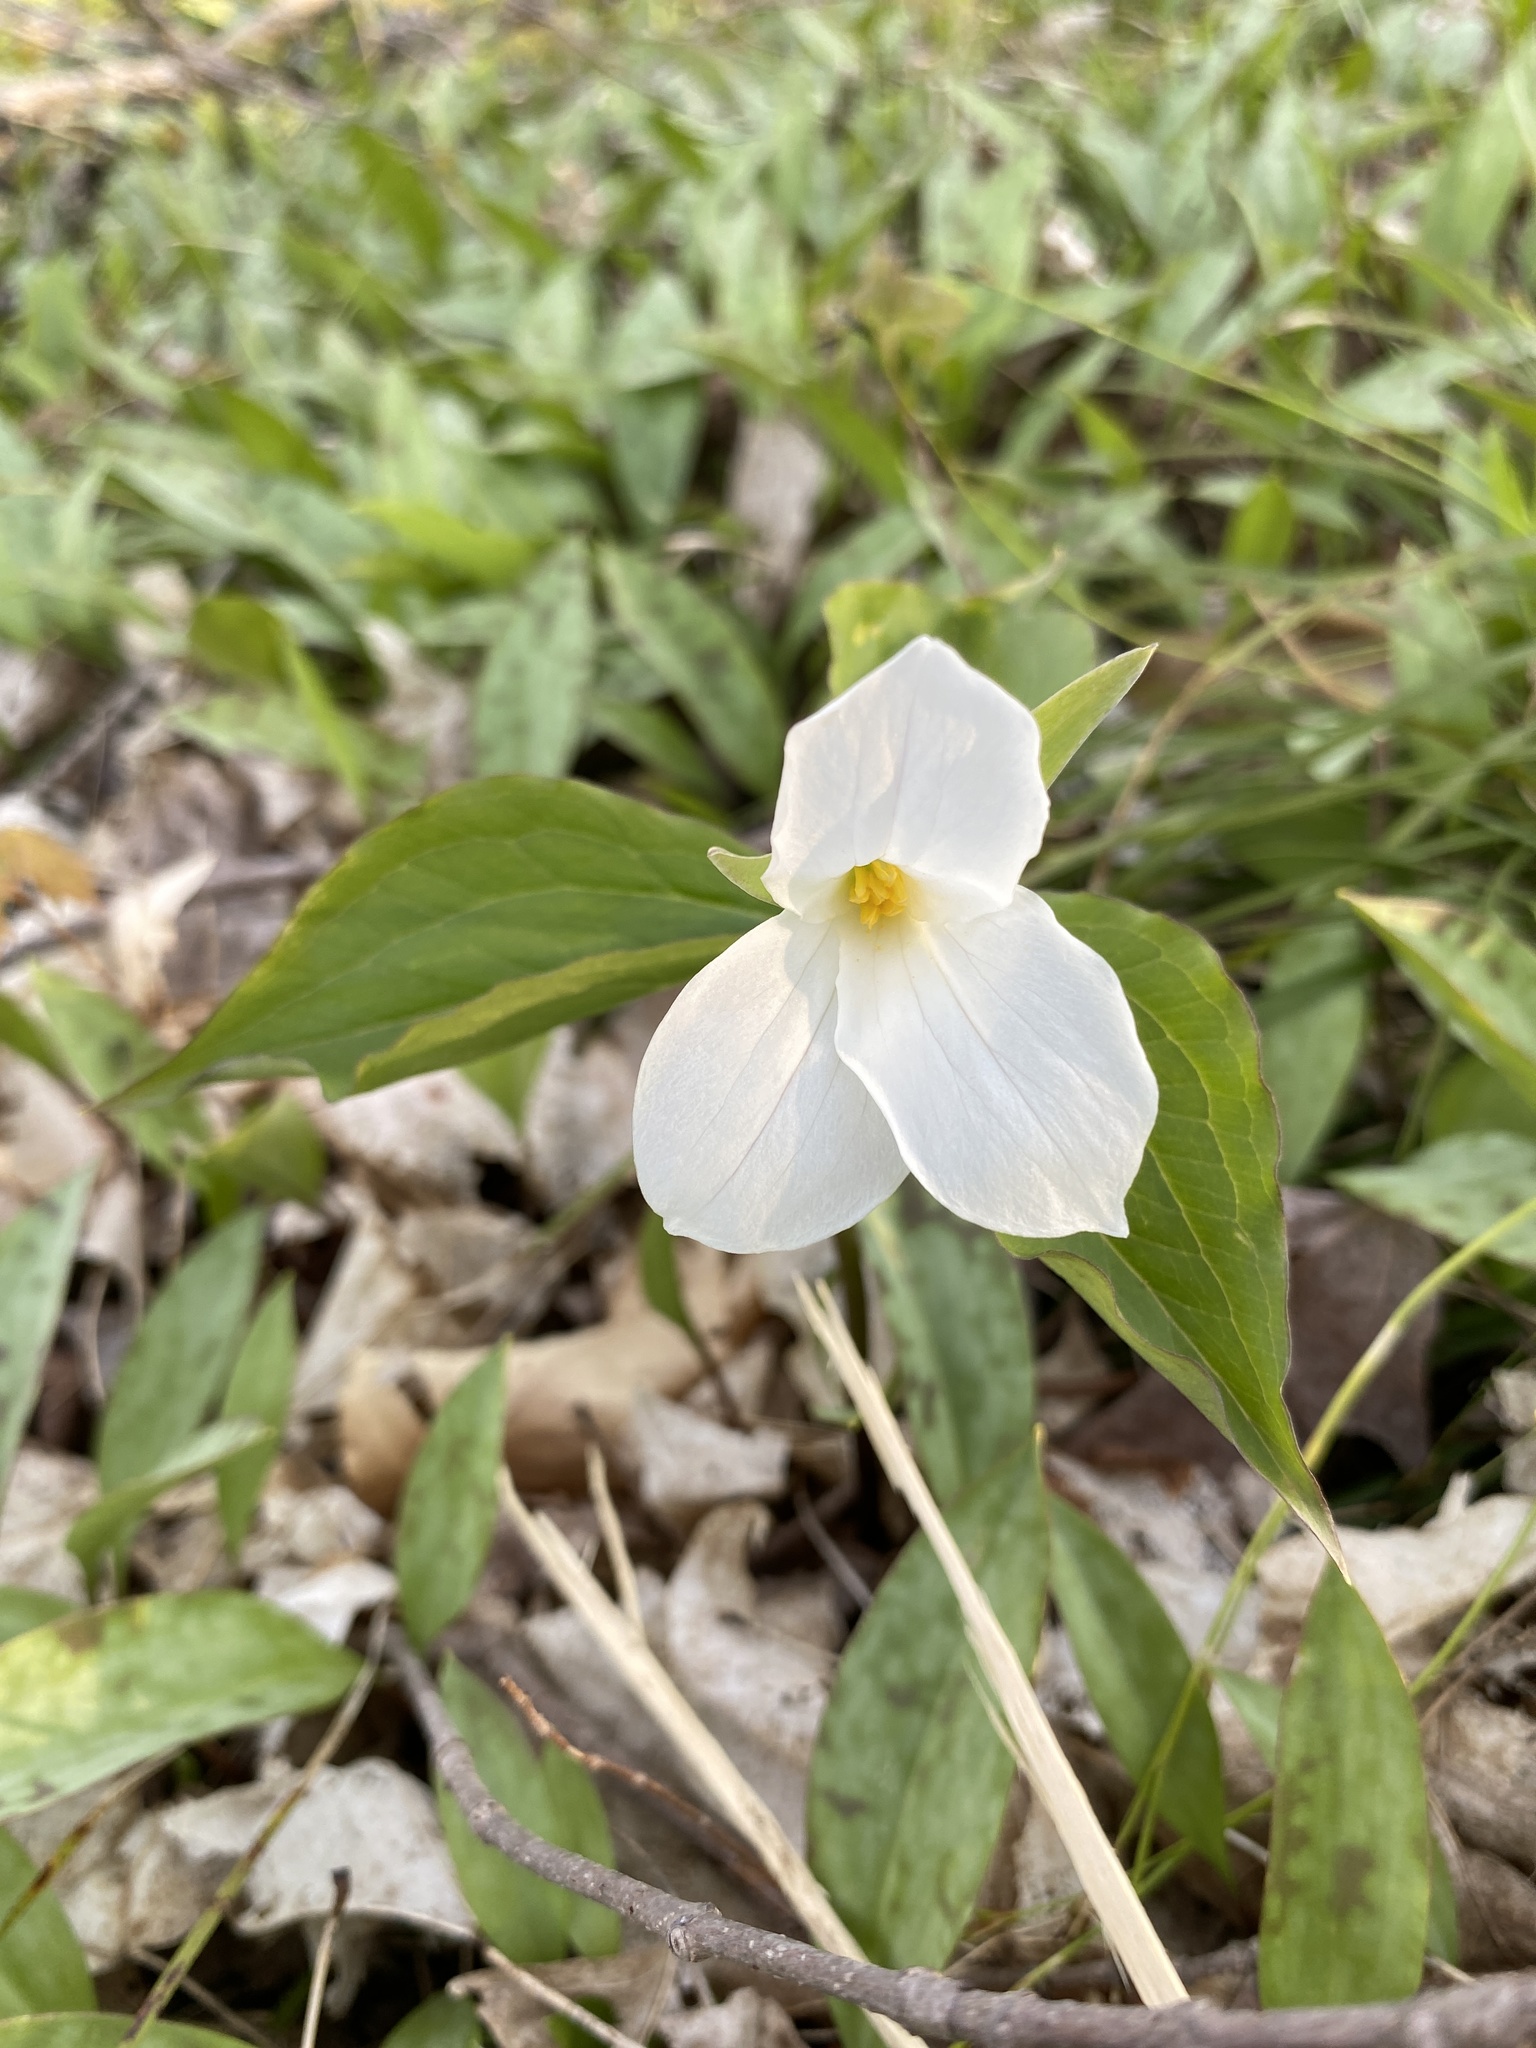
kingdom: Plantae
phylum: Tracheophyta
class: Liliopsida
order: Liliales
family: Melanthiaceae
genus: Trillium
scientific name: Trillium grandiflorum
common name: Great white trillium
